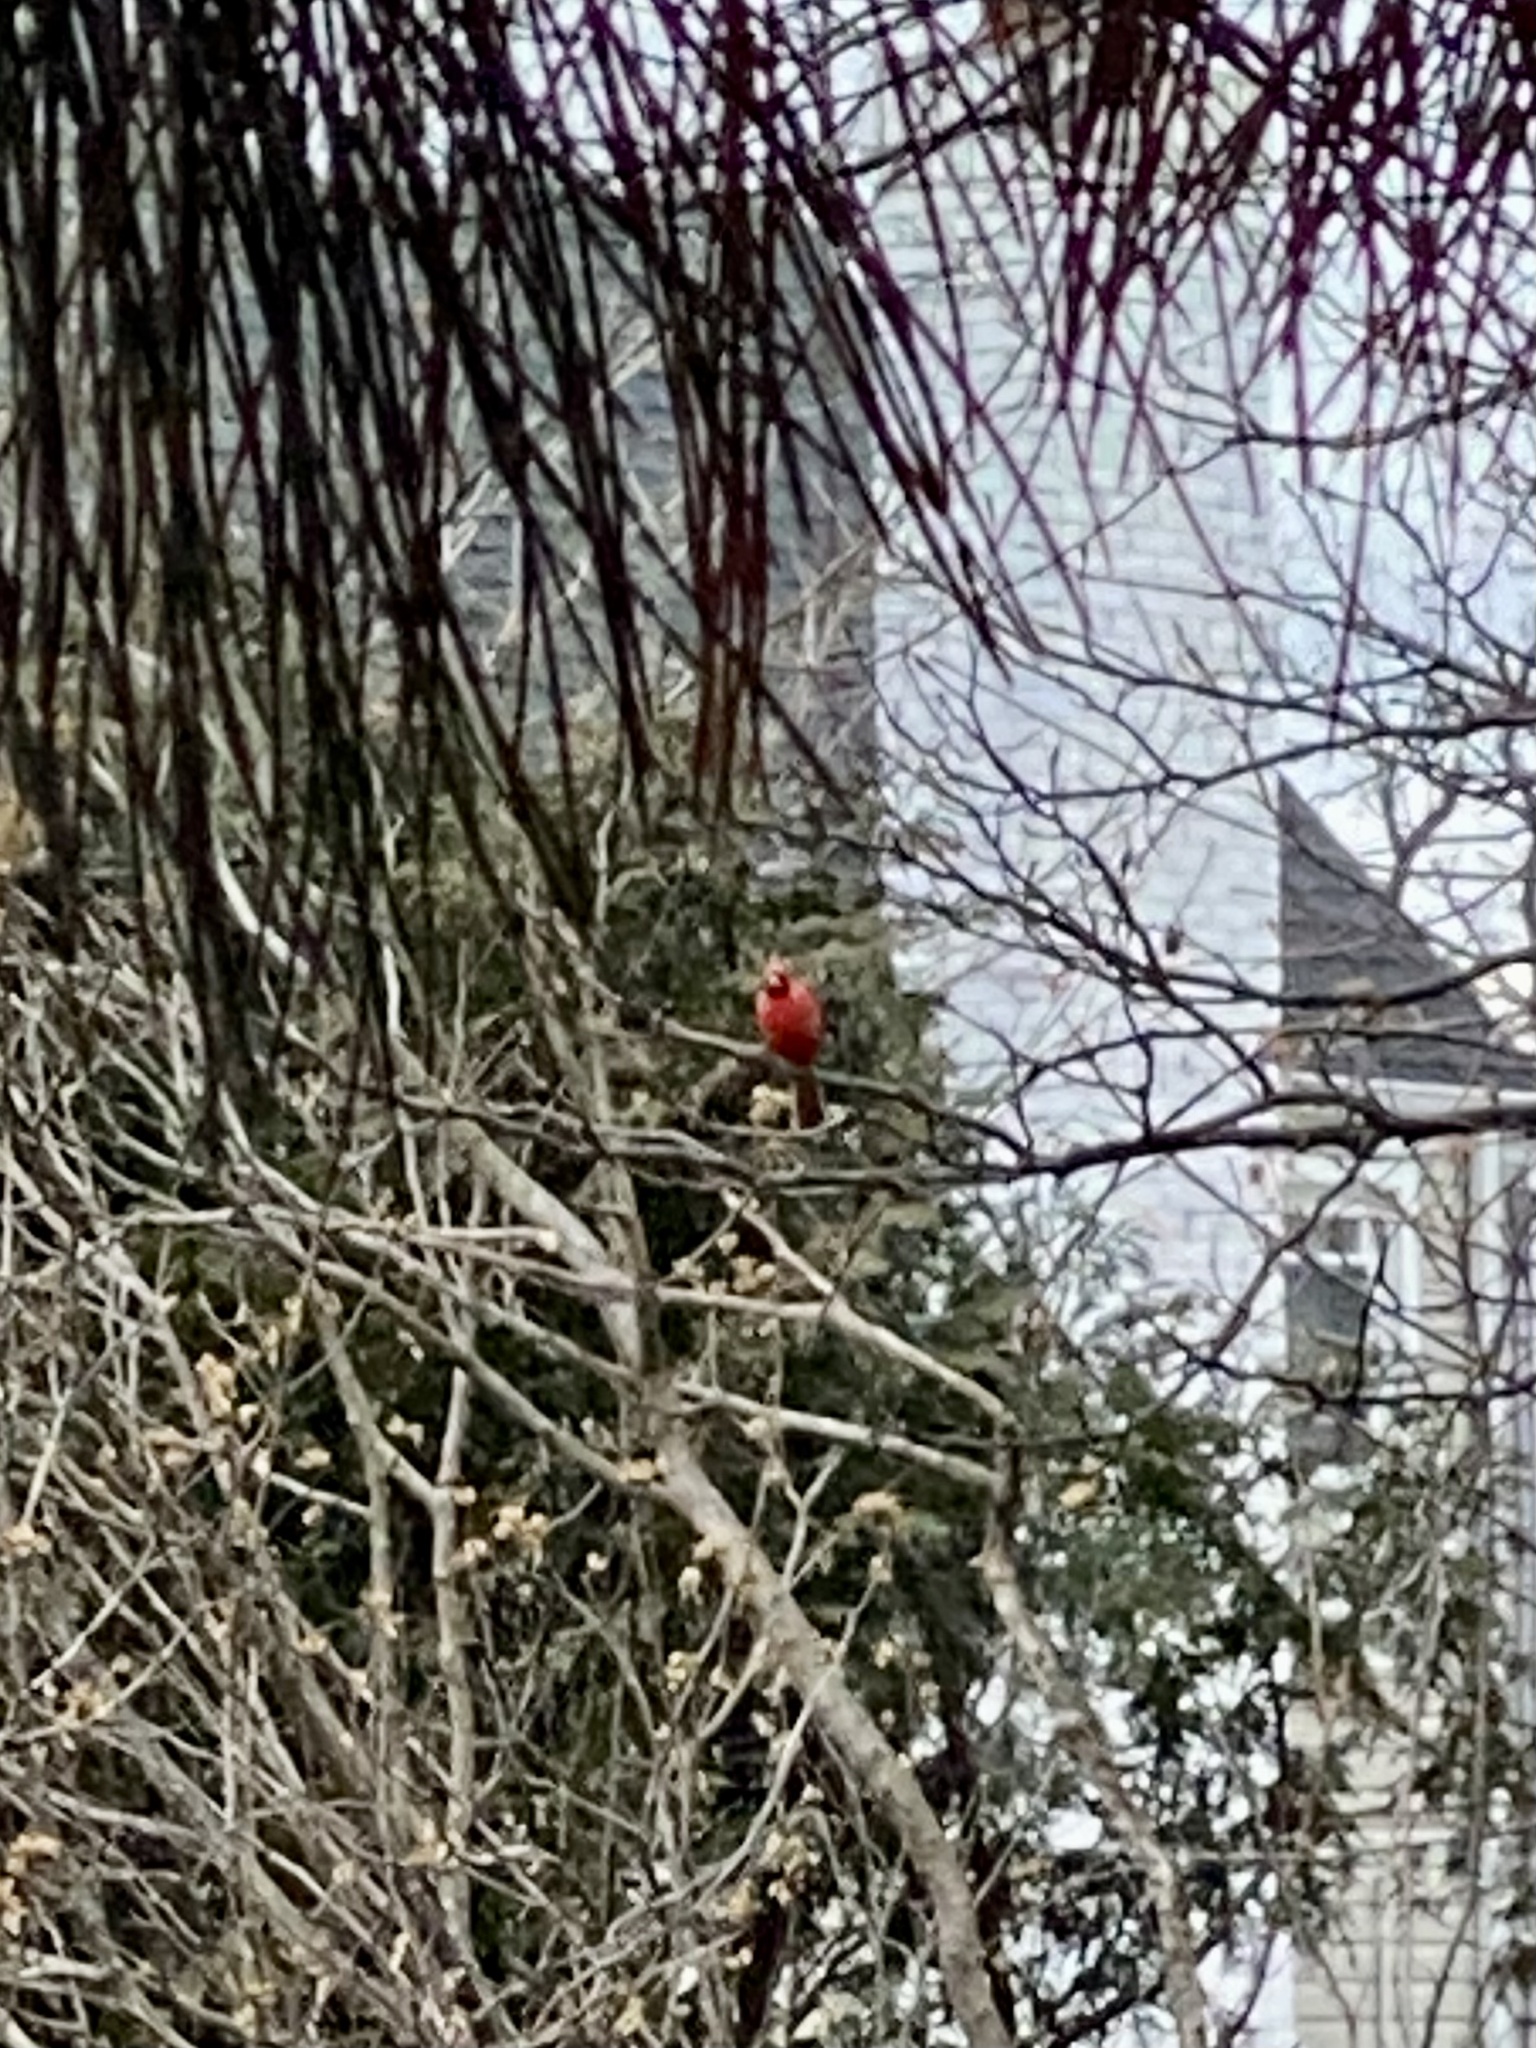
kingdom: Animalia
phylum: Chordata
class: Aves
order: Passeriformes
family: Cardinalidae
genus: Cardinalis
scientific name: Cardinalis cardinalis
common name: Northern cardinal
